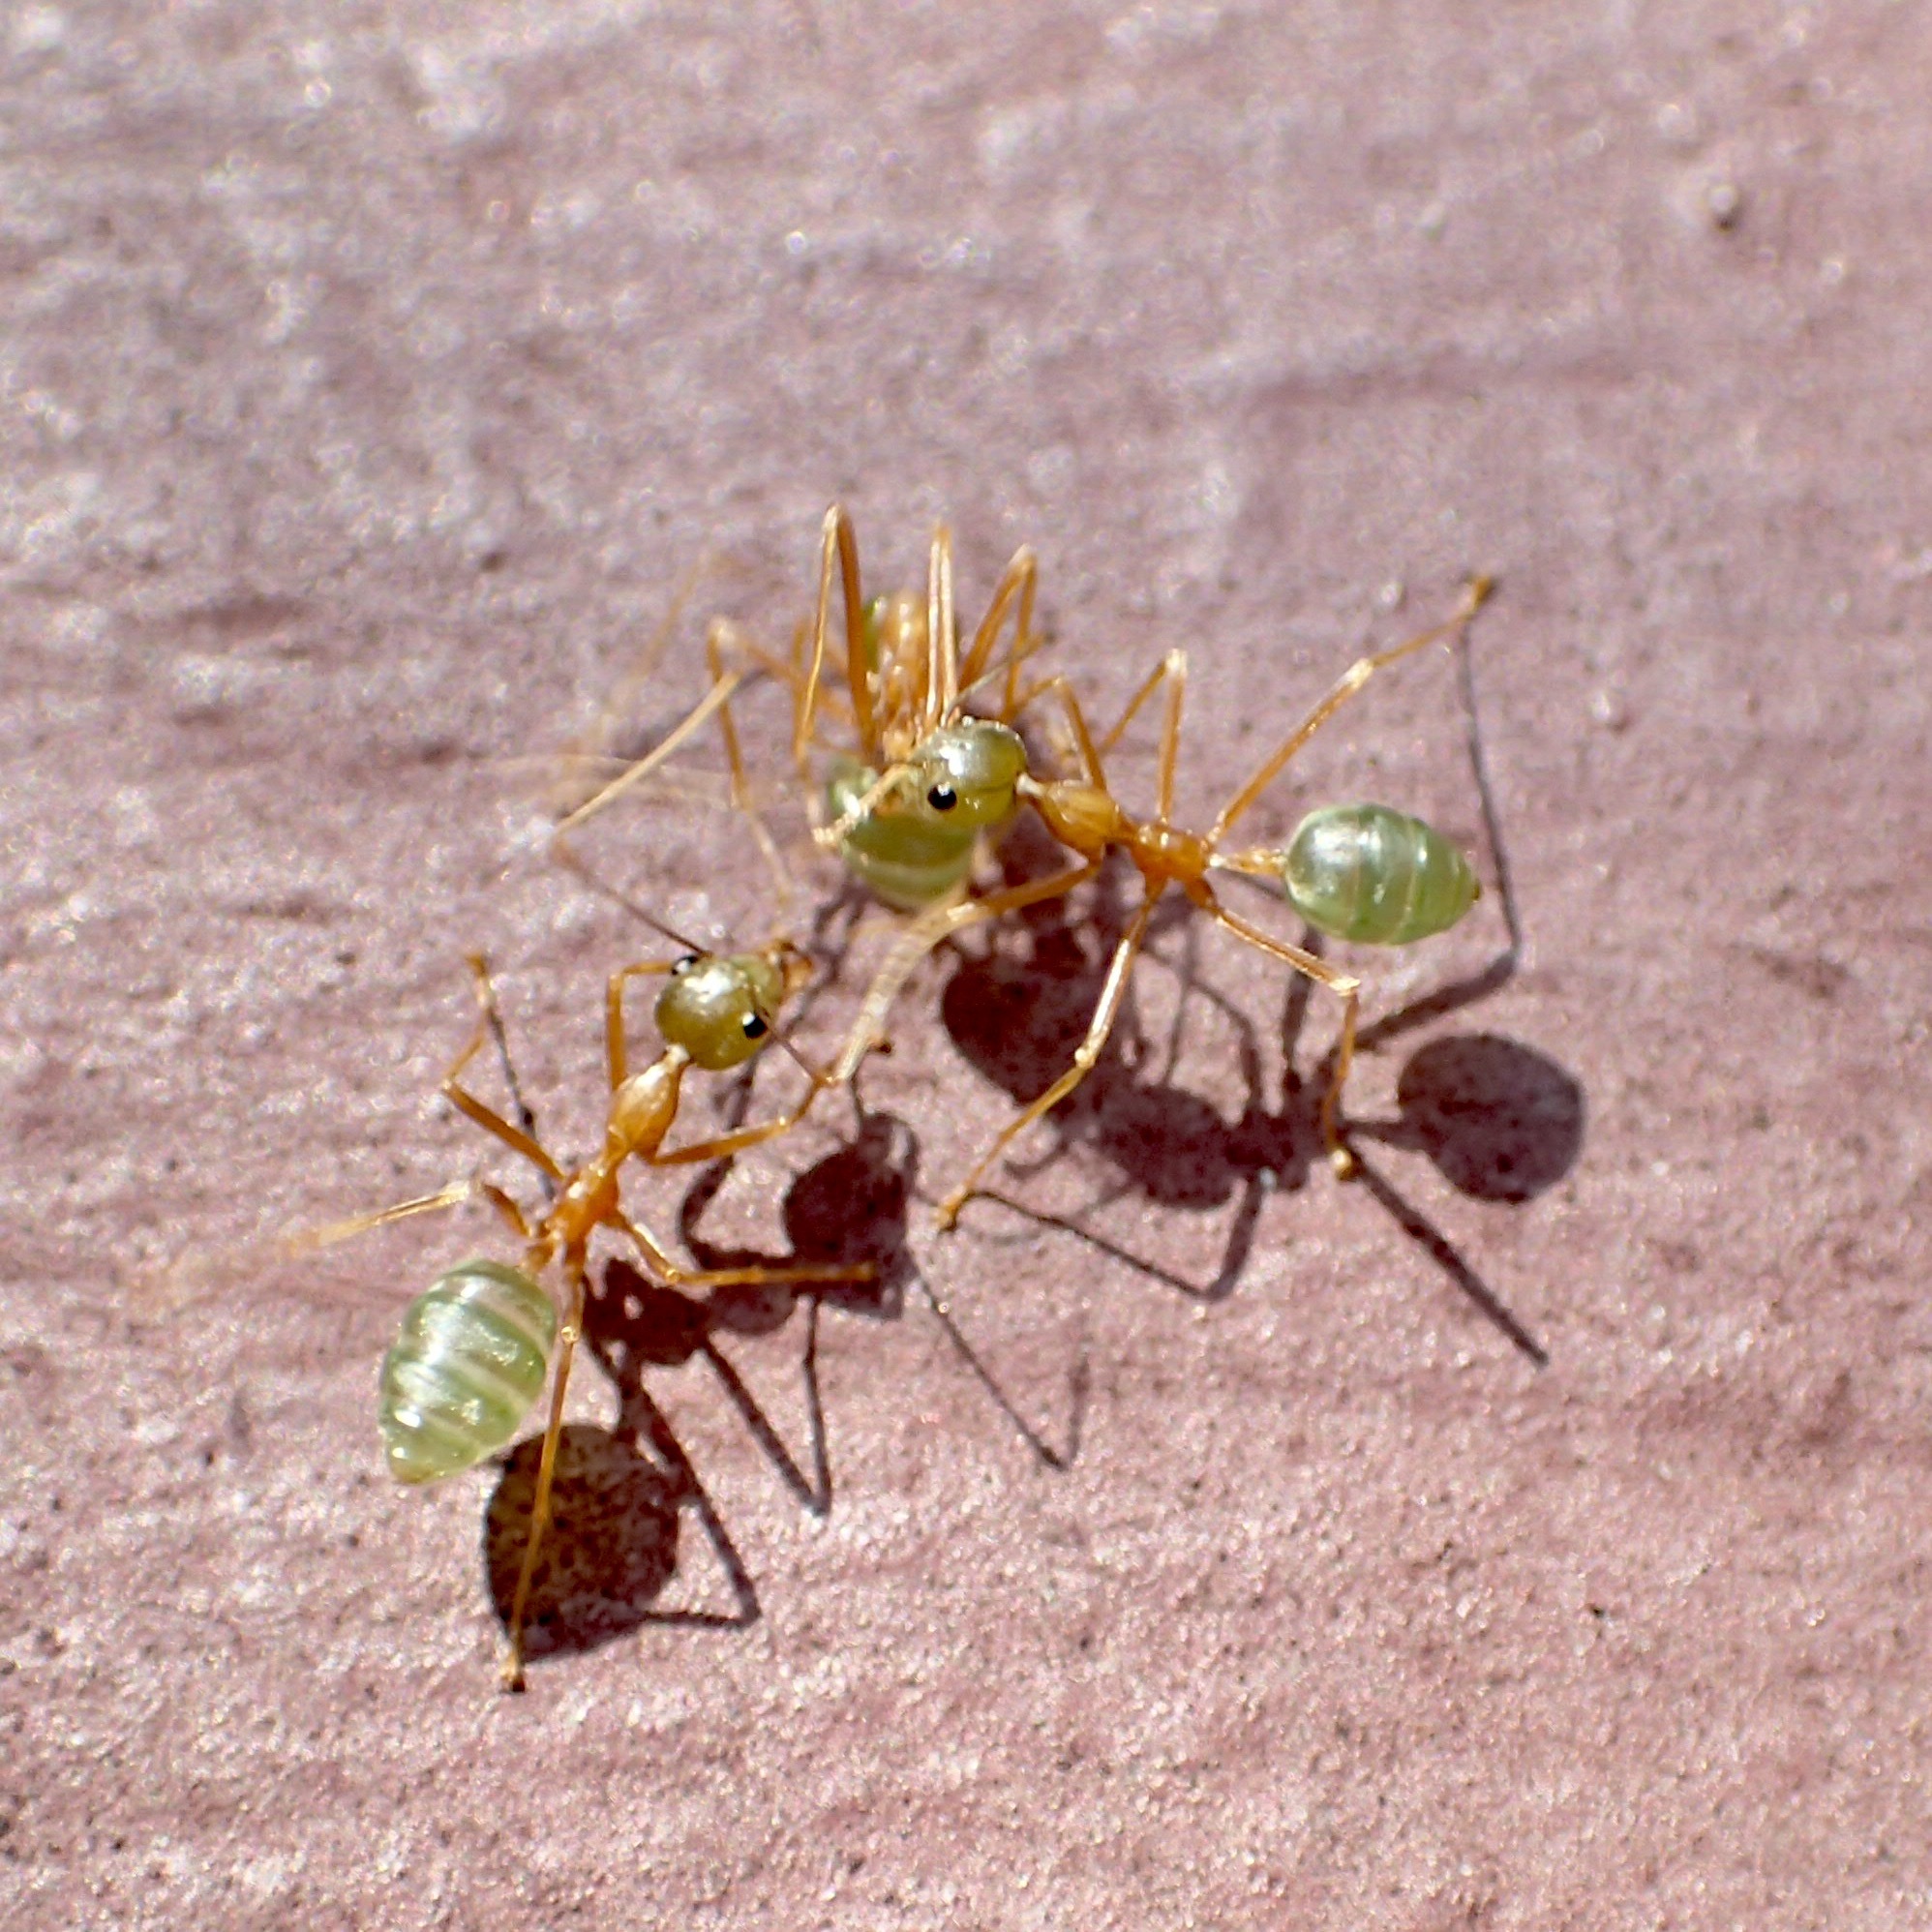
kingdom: Animalia
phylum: Arthropoda
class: Insecta
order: Hymenoptera
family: Formicidae
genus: Oecophylla
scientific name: Oecophylla smaragdina
